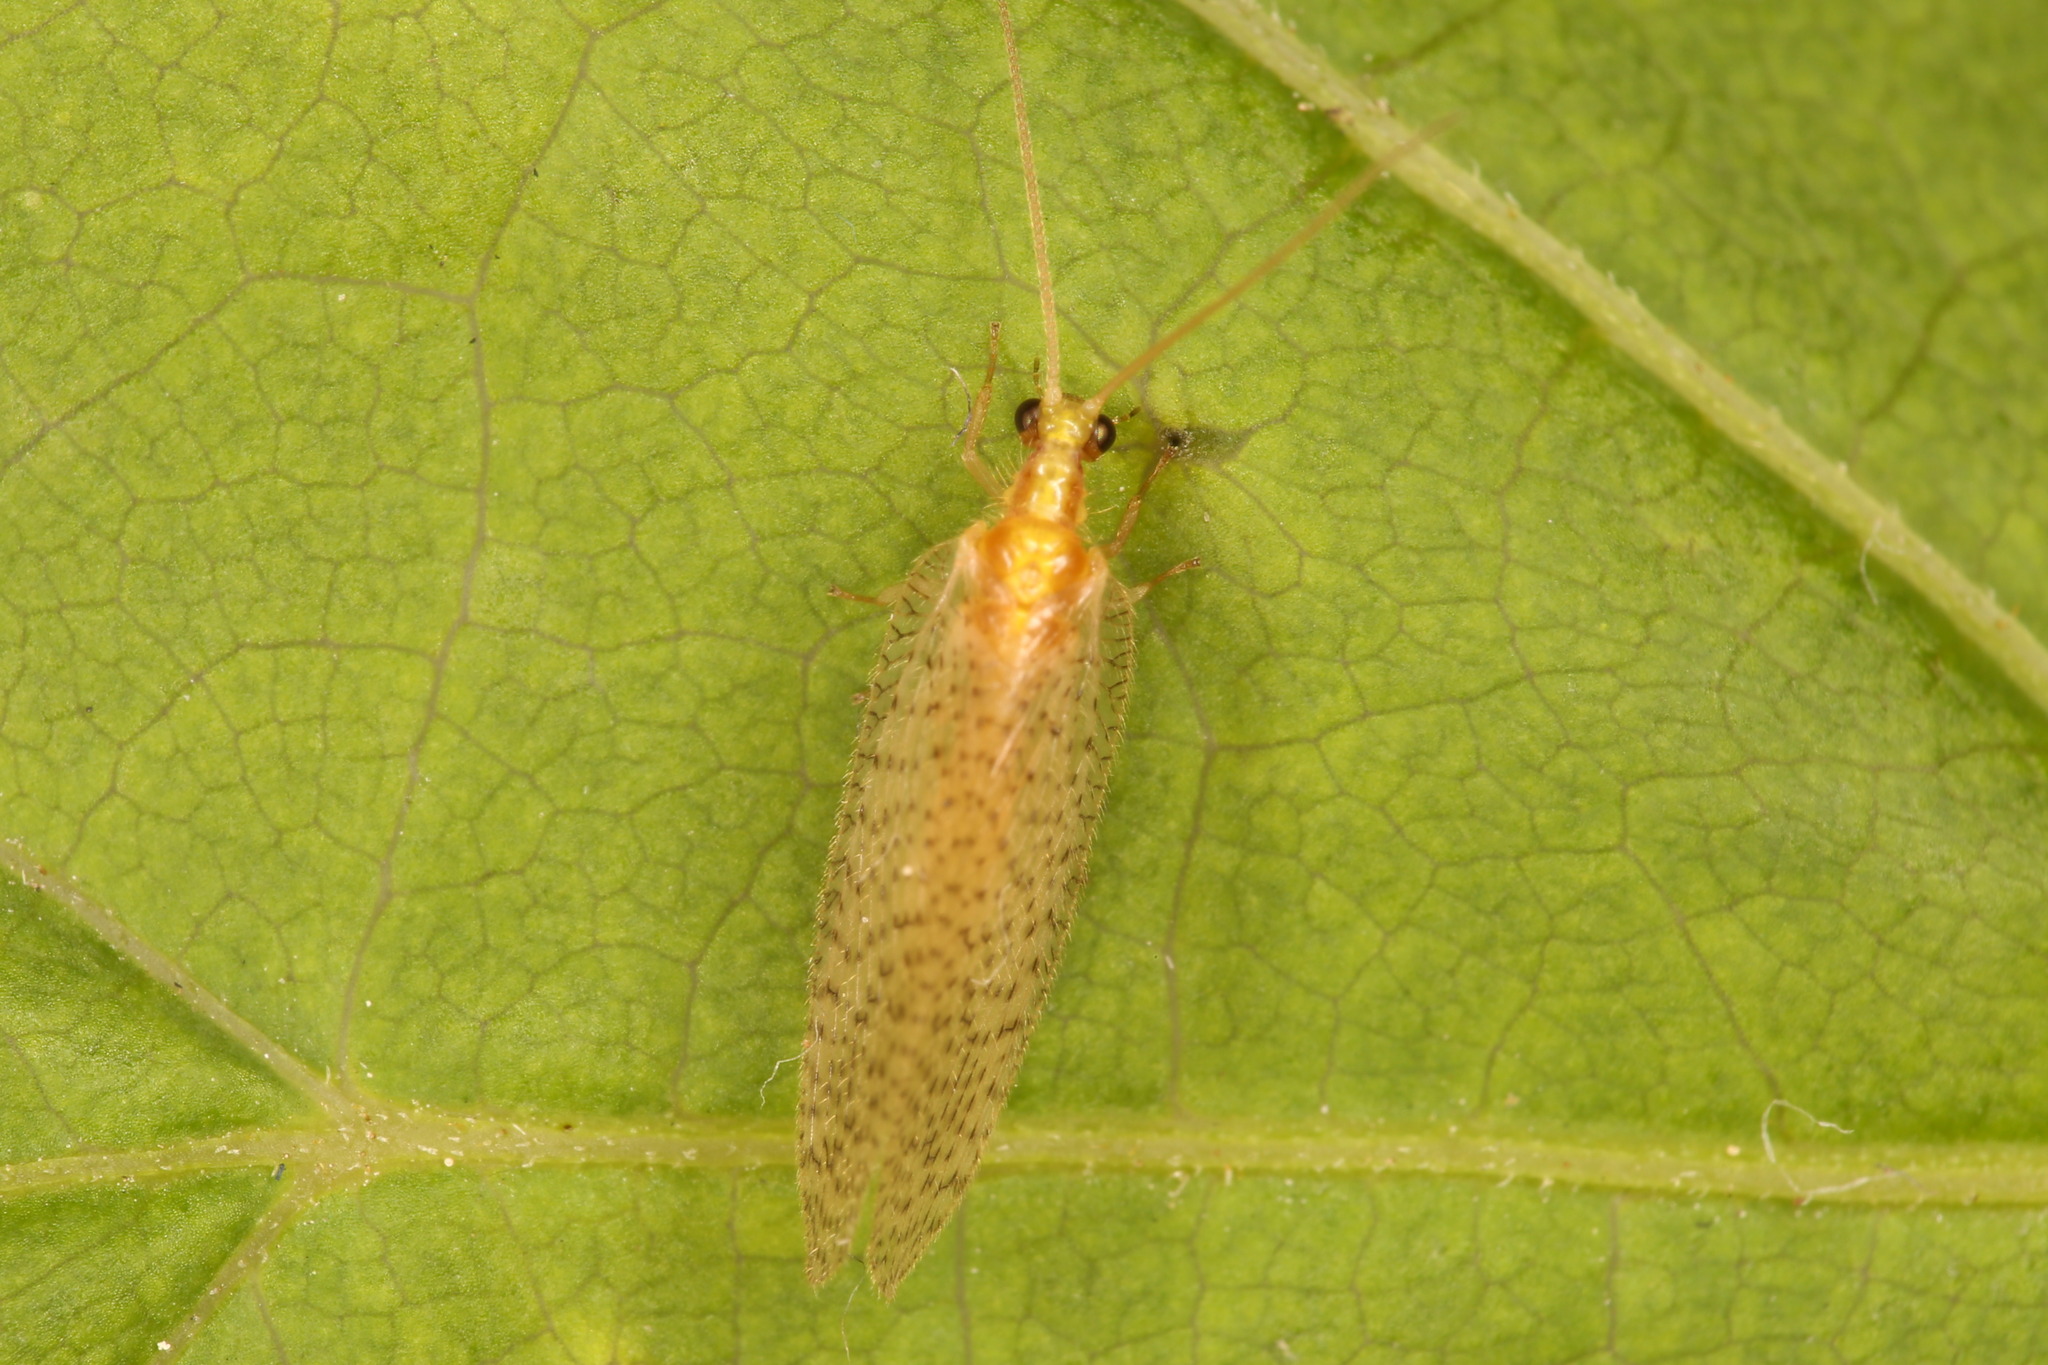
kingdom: Animalia
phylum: Arthropoda
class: Insecta
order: Neuroptera
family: Hemerobiidae
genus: Hemerobius
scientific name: Hemerobius micans
